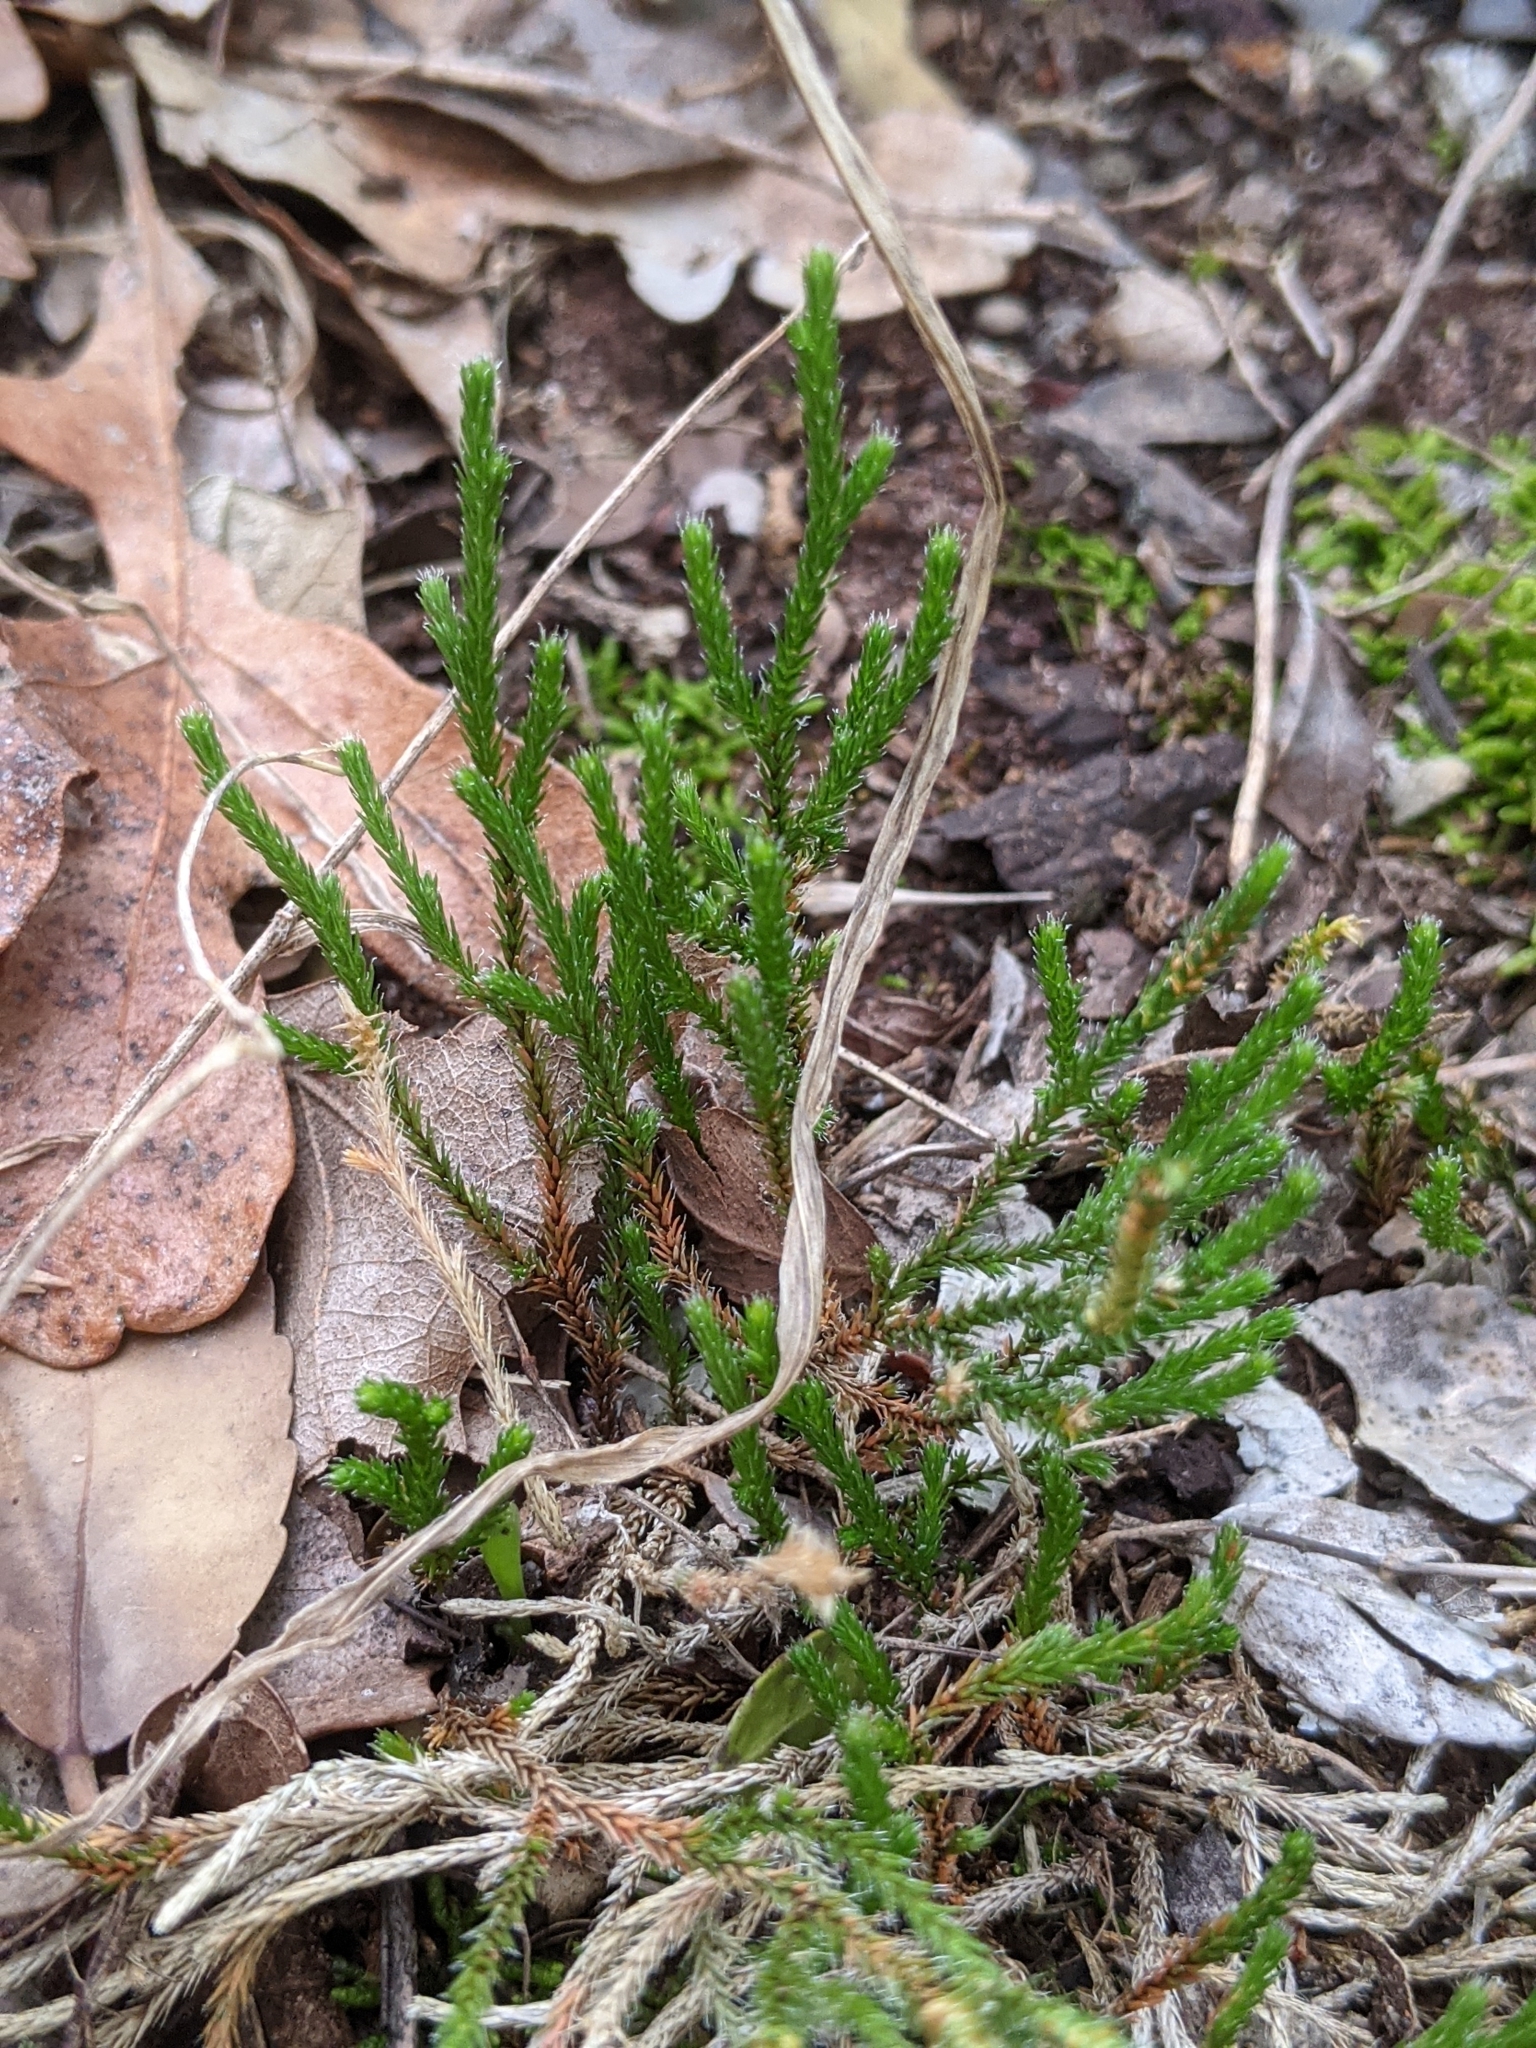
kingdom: Plantae
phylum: Tracheophyta
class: Lycopodiopsida
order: Selaginellales
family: Selaginellaceae
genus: Selaginella
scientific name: Selaginella corallina
